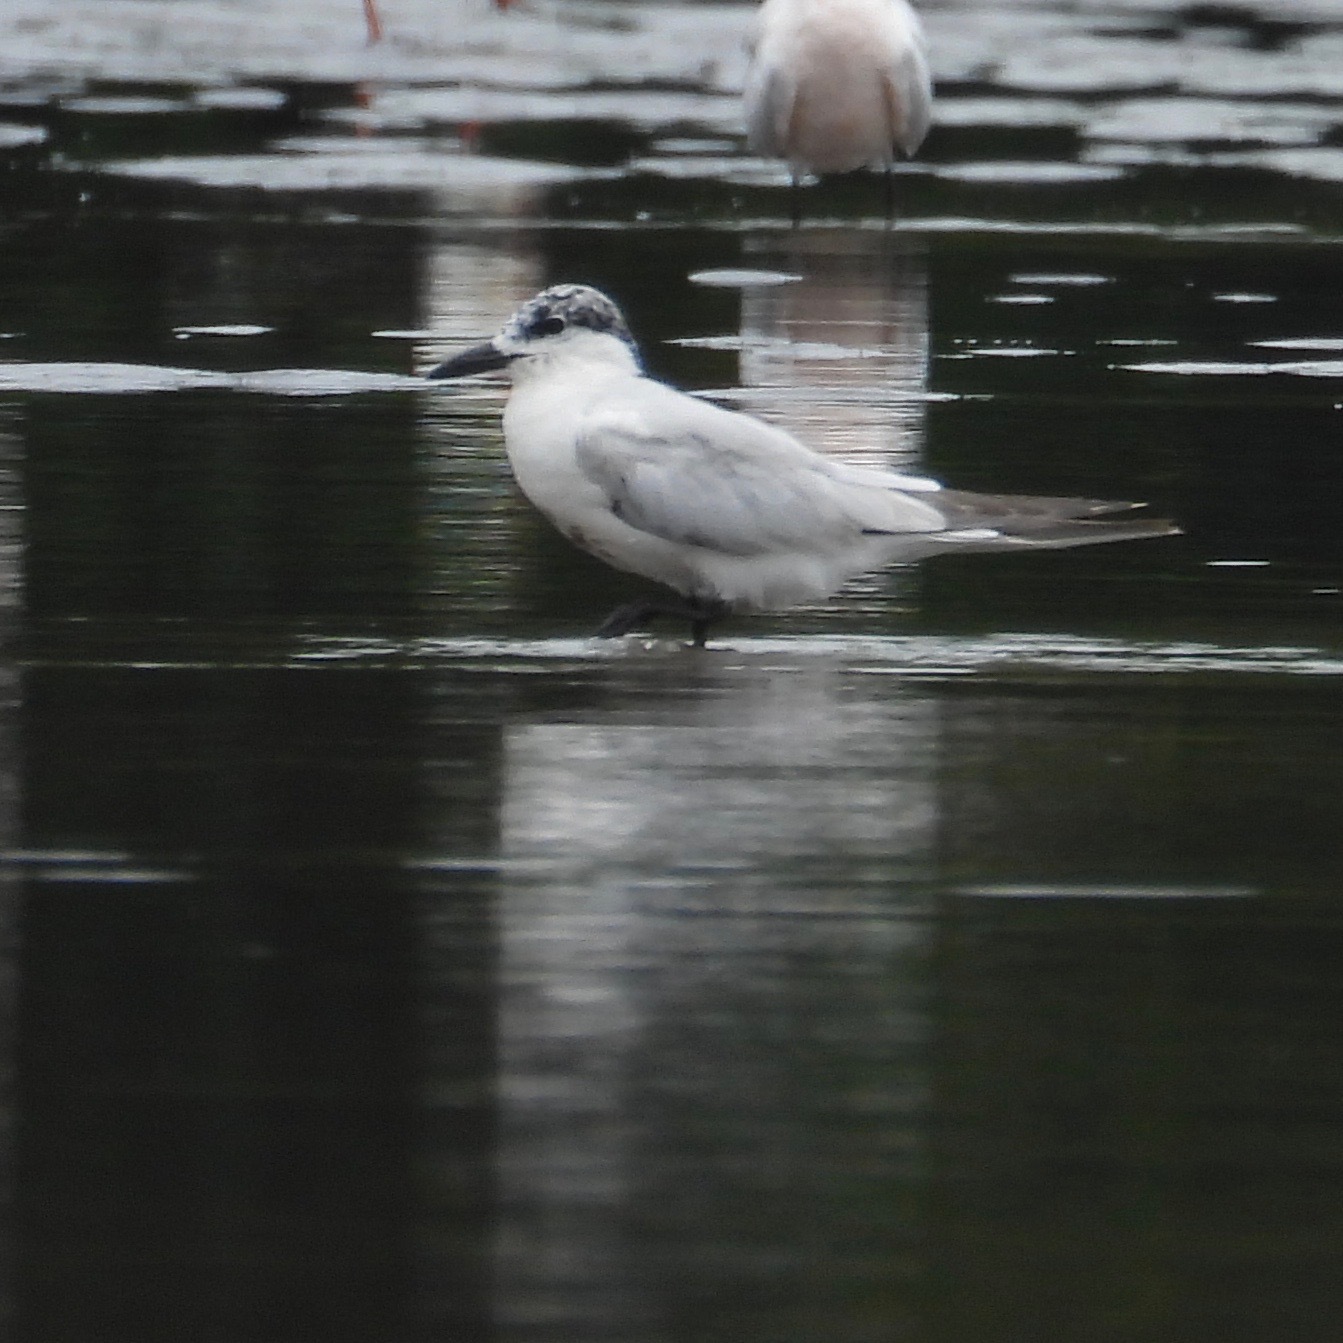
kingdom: Animalia
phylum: Chordata
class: Aves
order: Charadriiformes
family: Laridae
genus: Gelochelidon
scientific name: Gelochelidon nilotica
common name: Gull-billed tern
